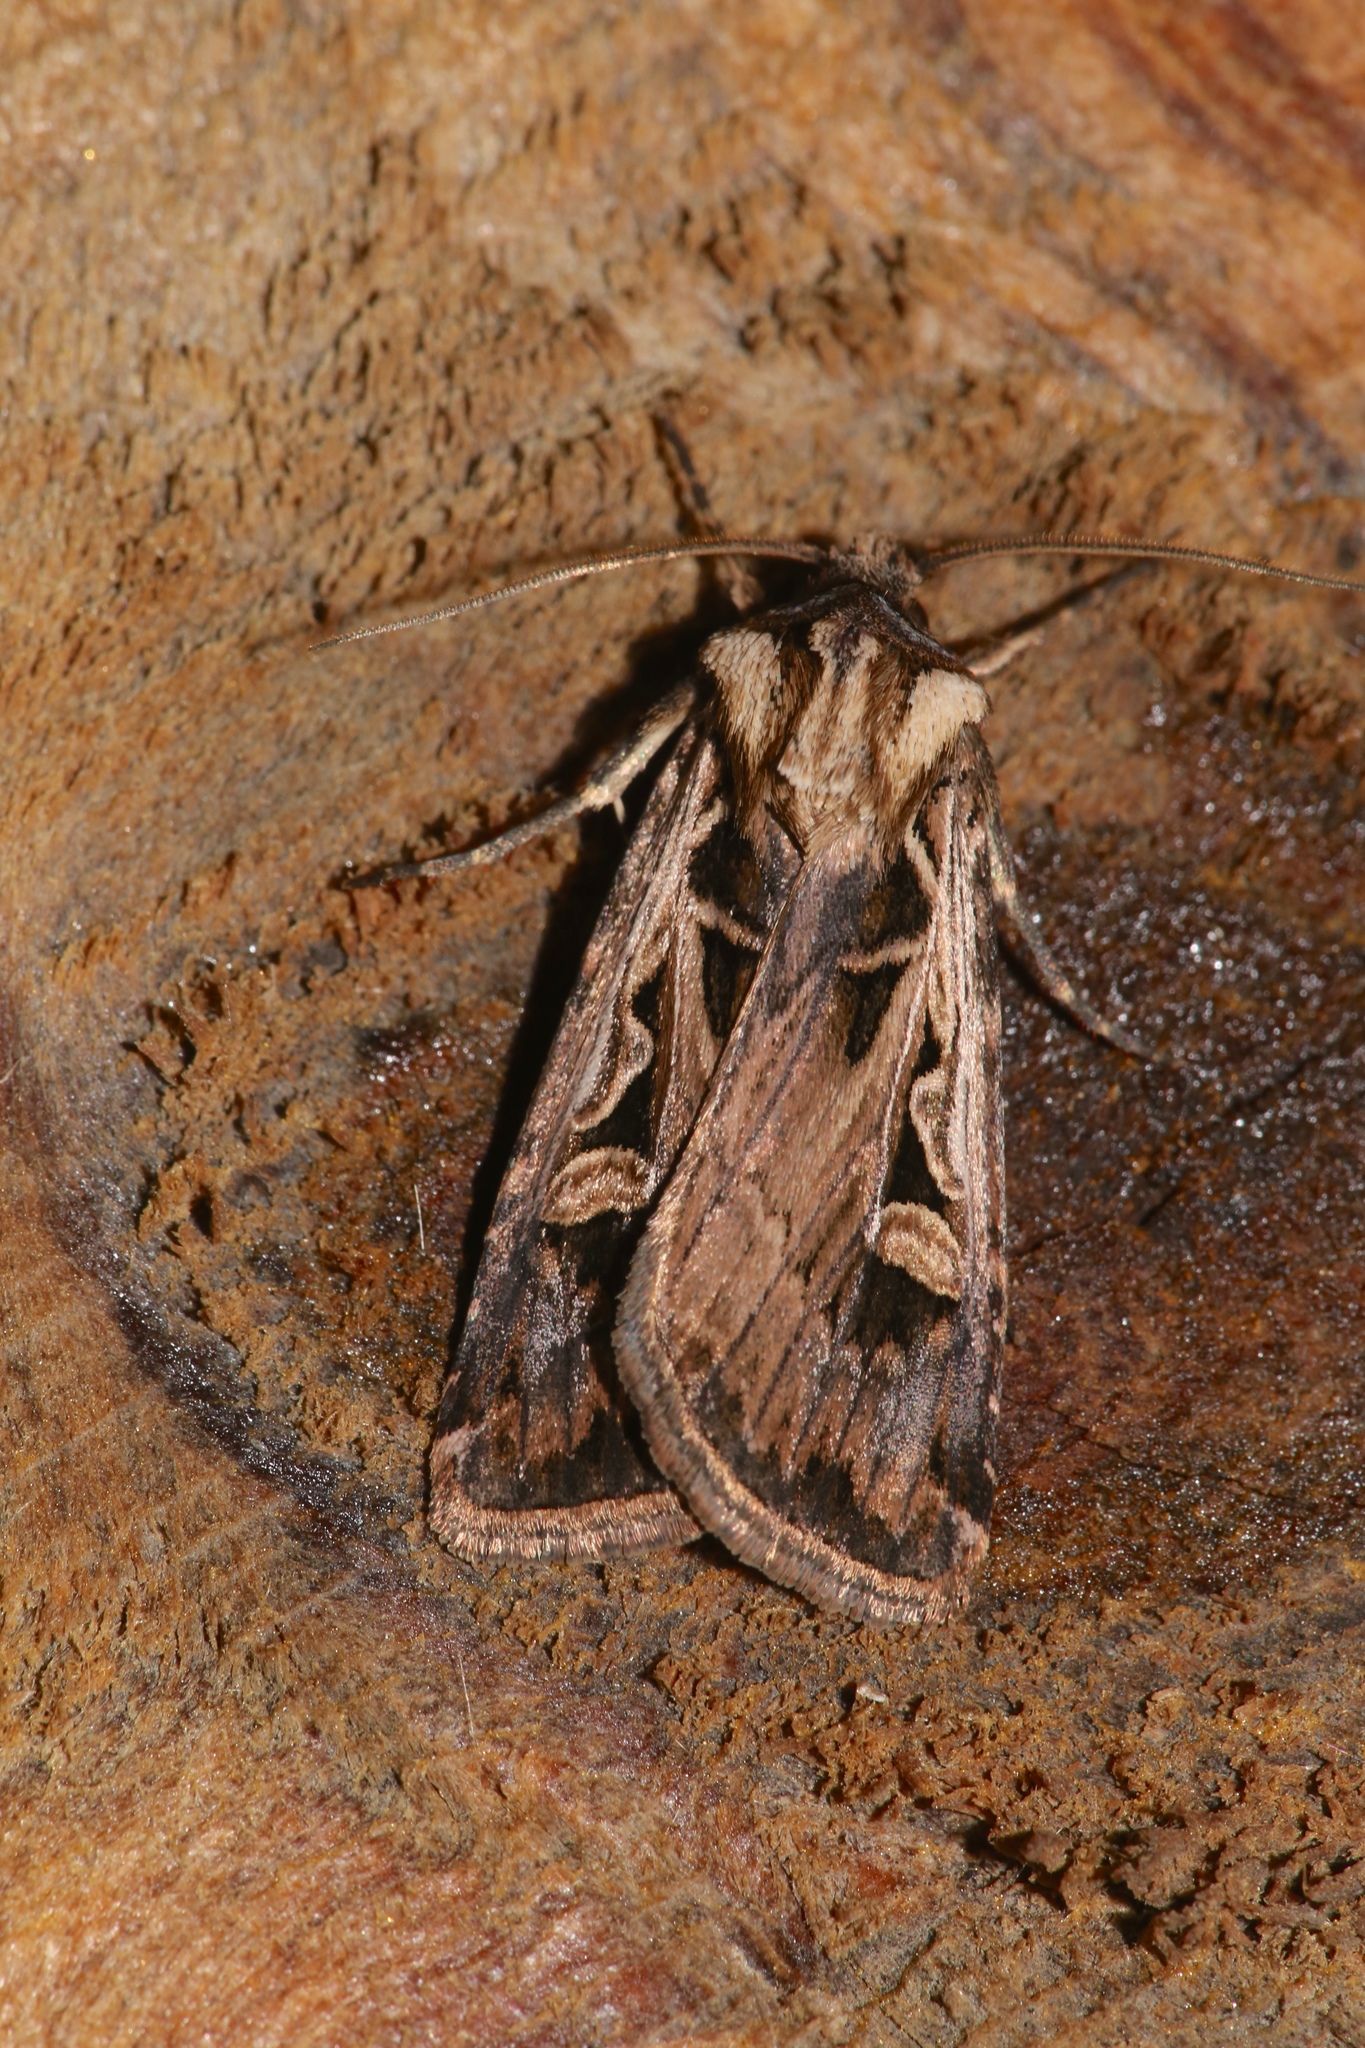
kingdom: Animalia
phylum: Arthropoda
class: Insecta
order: Lepidoptera
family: Noctuidae
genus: Feltia
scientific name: Feltia subgothica
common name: Gothic dart
